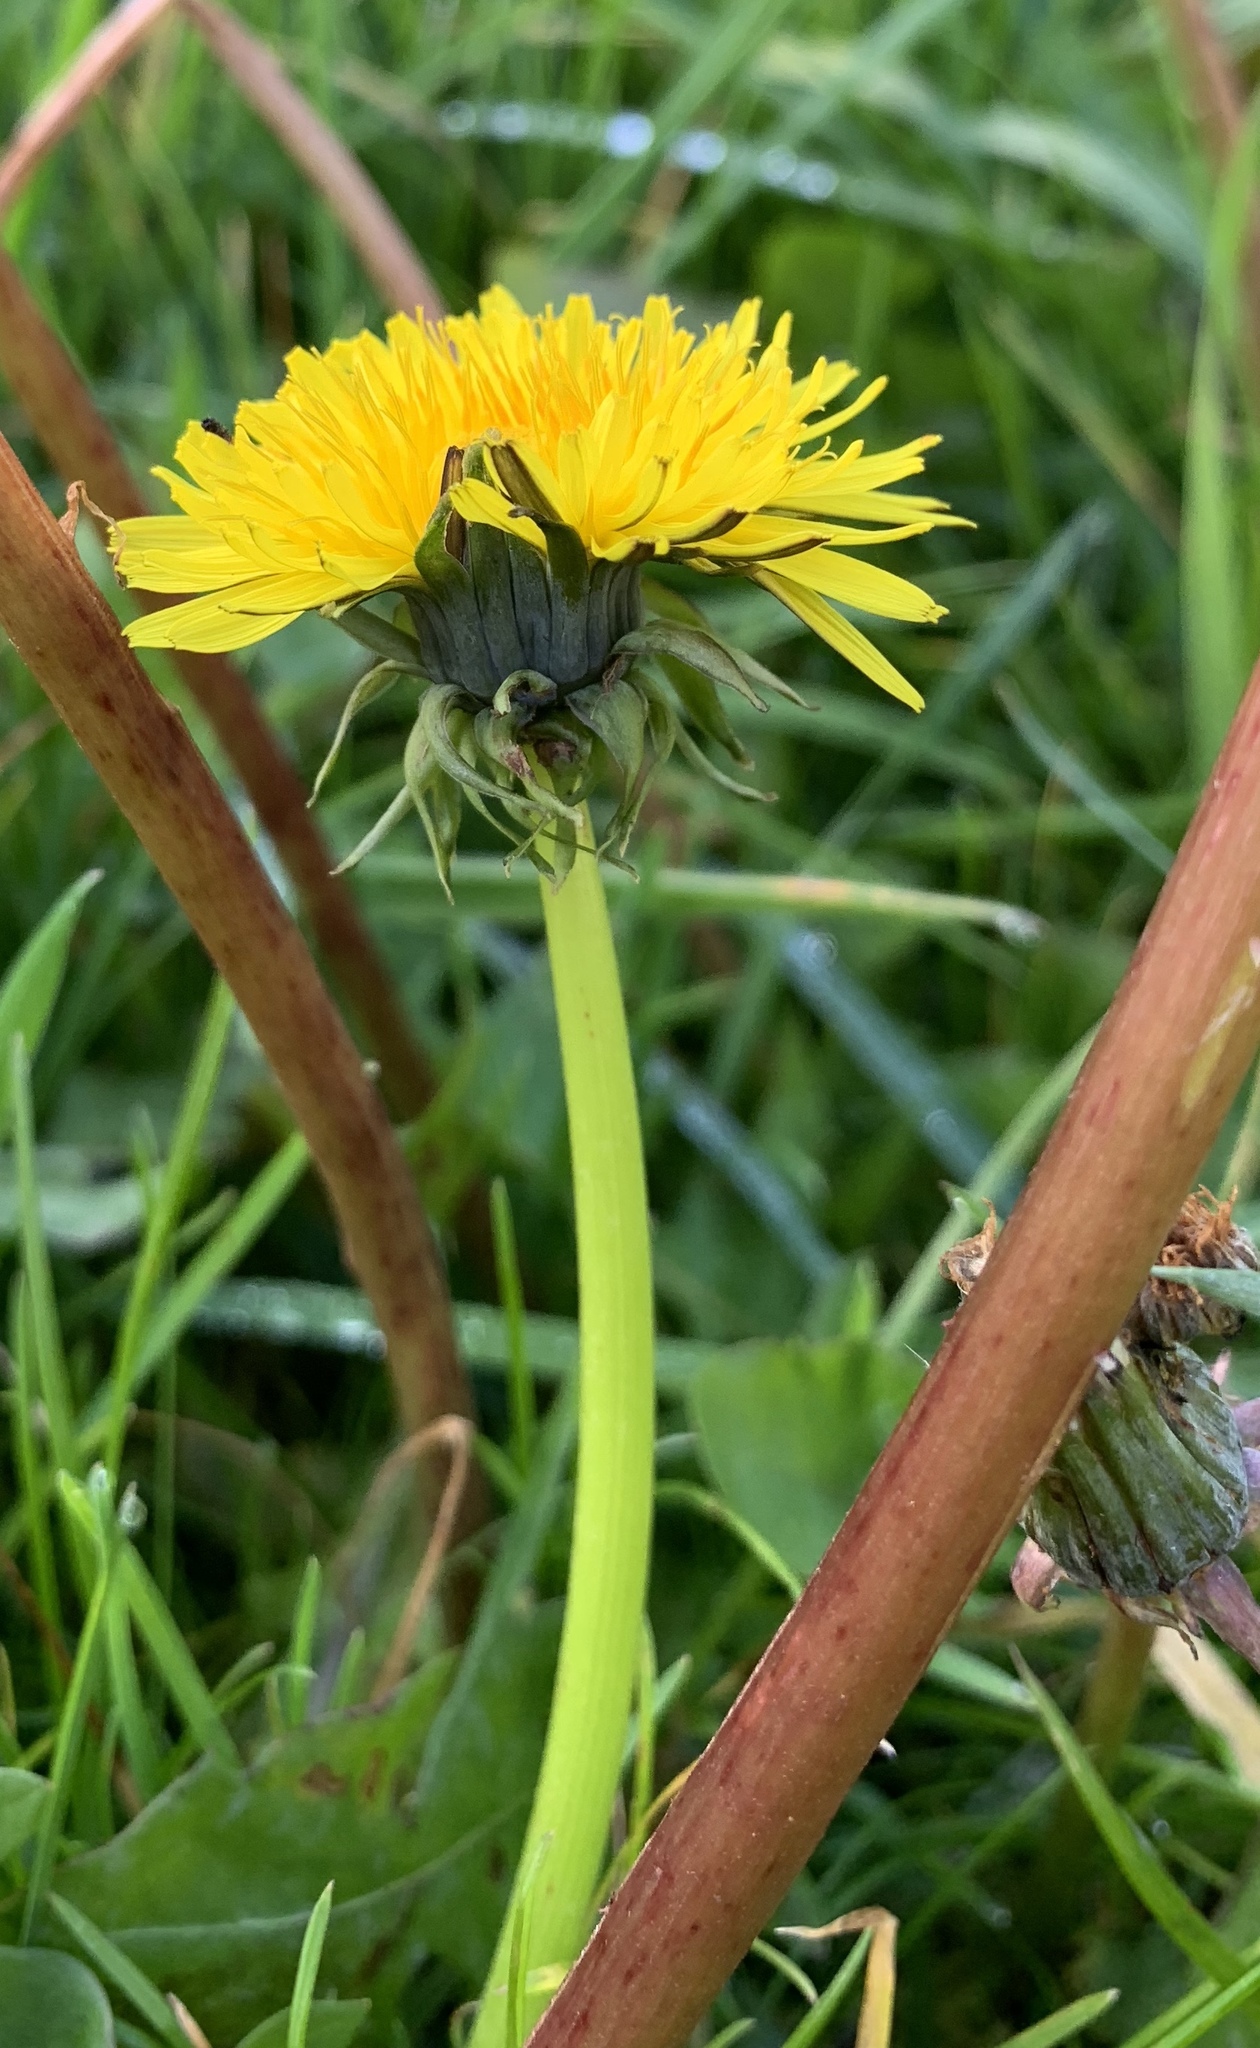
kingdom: Plantae
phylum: Tracheophyta
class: Magnoliopsida
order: Asterales
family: Asteraceae
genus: Taraxacum
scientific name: Taraxacum officinale
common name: Common dandelion
